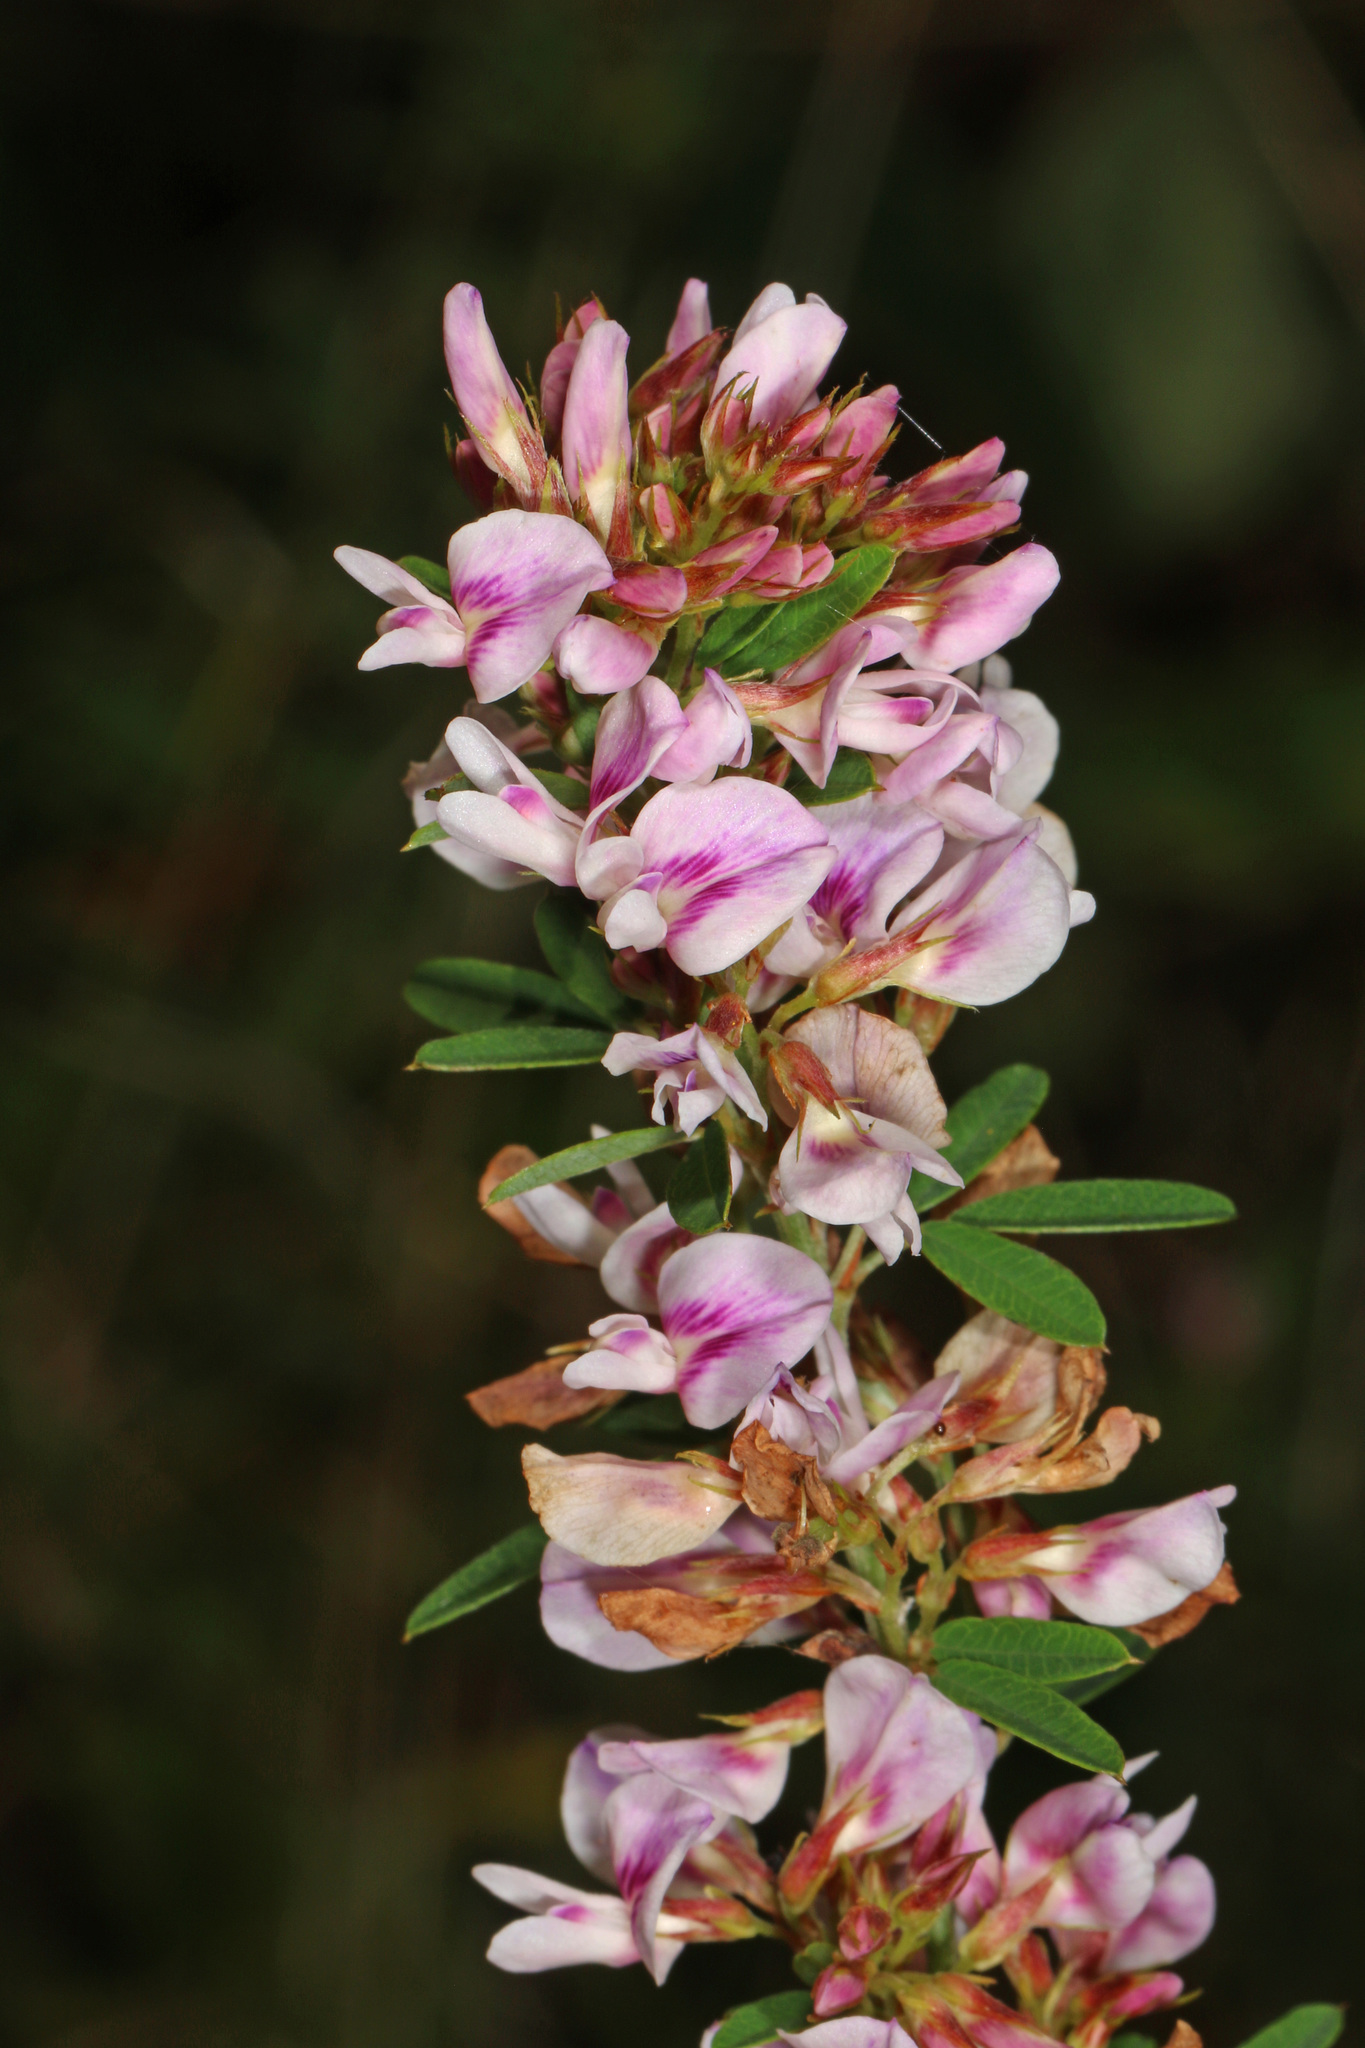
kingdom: Plantae
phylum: Tracheophyta
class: Magnoliopsida
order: Fabales
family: Fabaceae
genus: Lespedeza
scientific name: Lespedeza virginica
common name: Slender bush-clover
